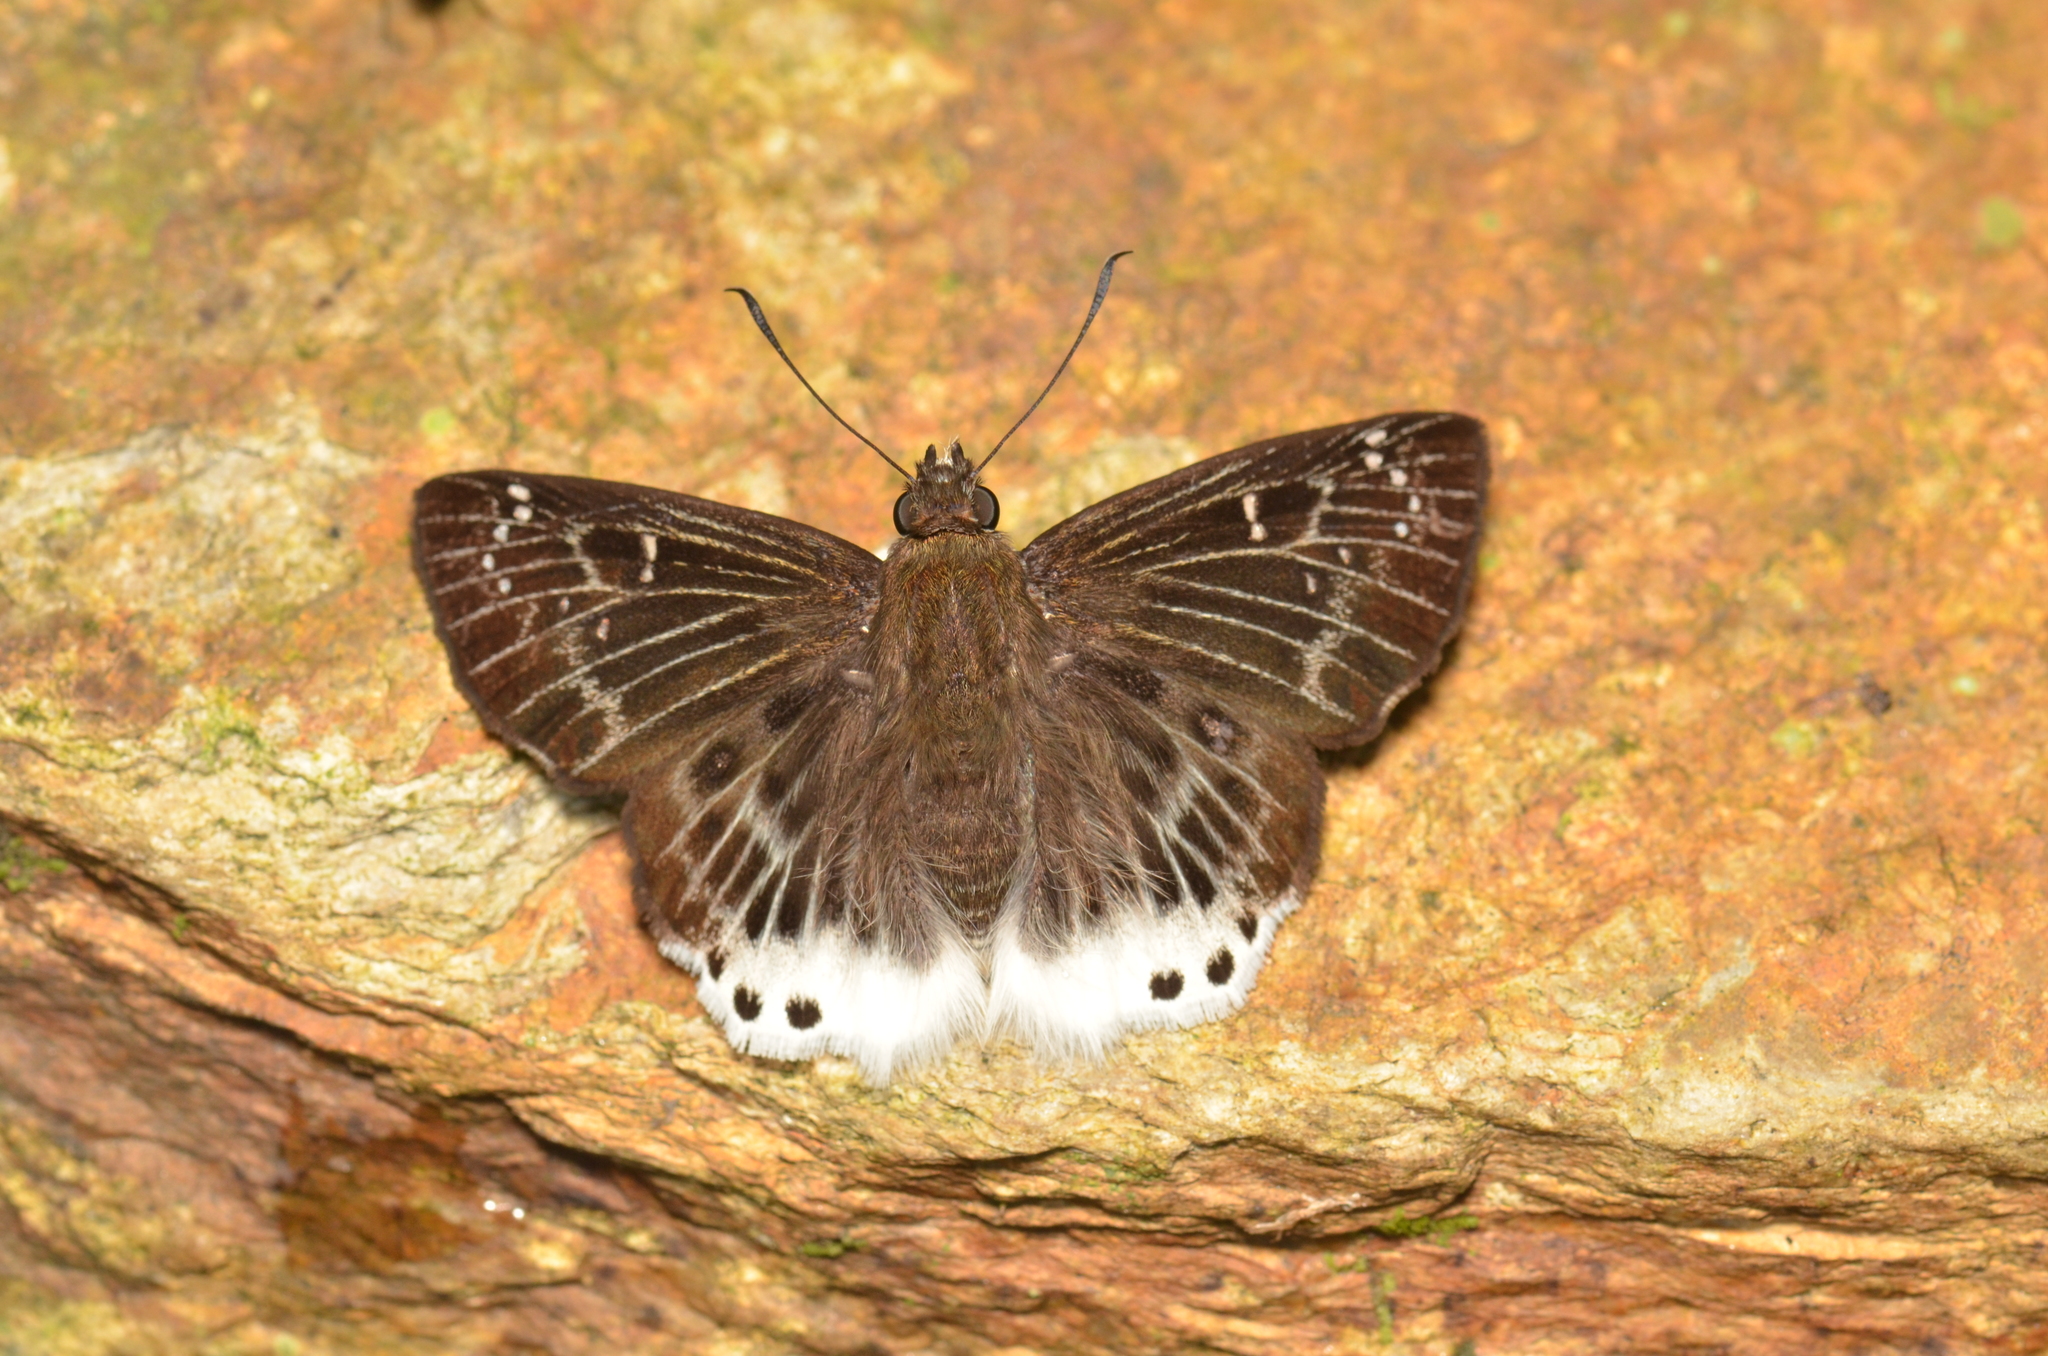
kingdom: Animalia
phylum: Arthropoda
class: Insecta
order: Lepidoptera
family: Hesperiidae
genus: Darpa
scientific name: Darpa striata
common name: Striated angle
